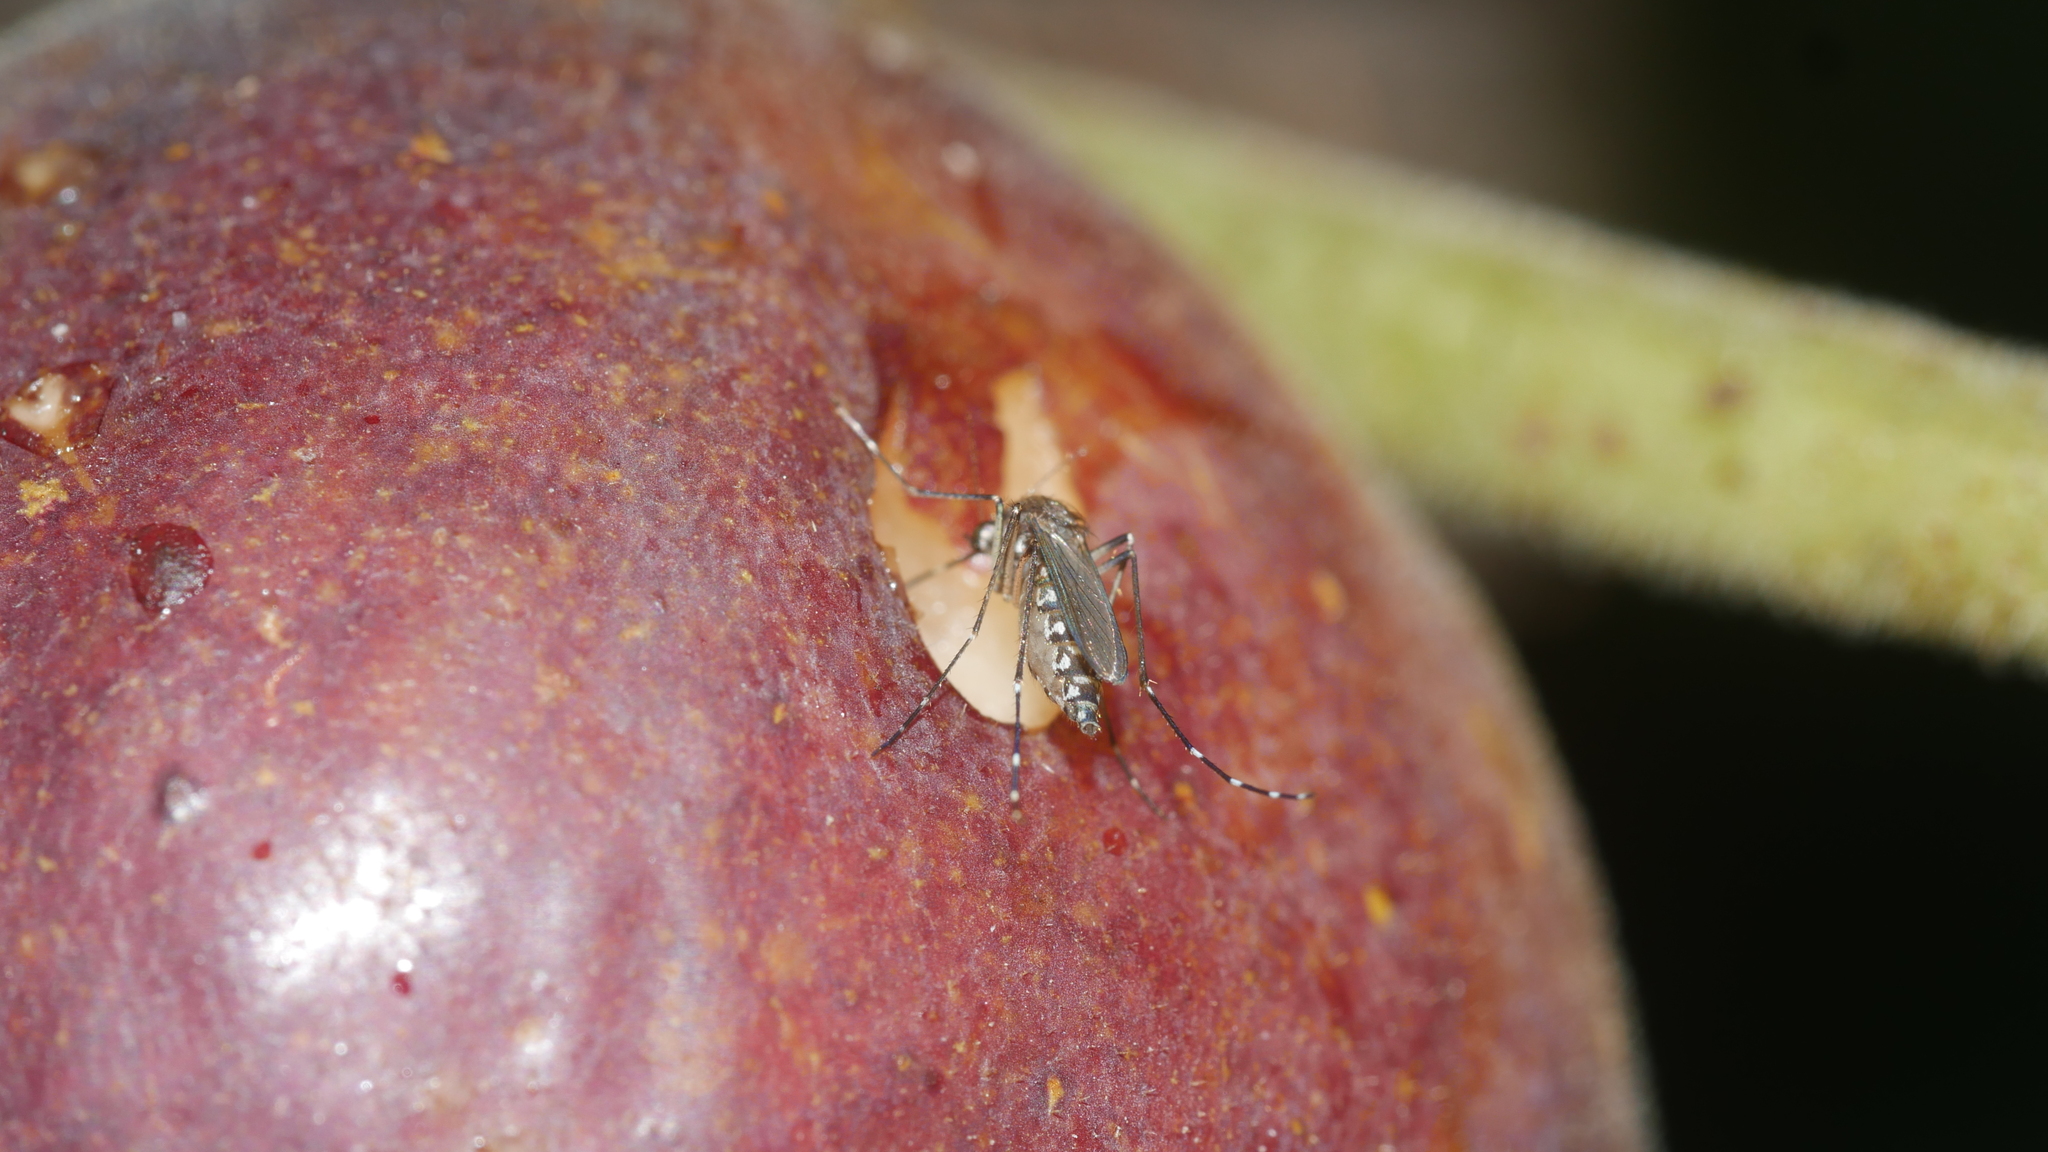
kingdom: Animalia
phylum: Arthropoda
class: Insecta
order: Diptera
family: Culicidae
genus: Aedes
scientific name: Aedes taeniorhynchus
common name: Black salt marsh mosquito
